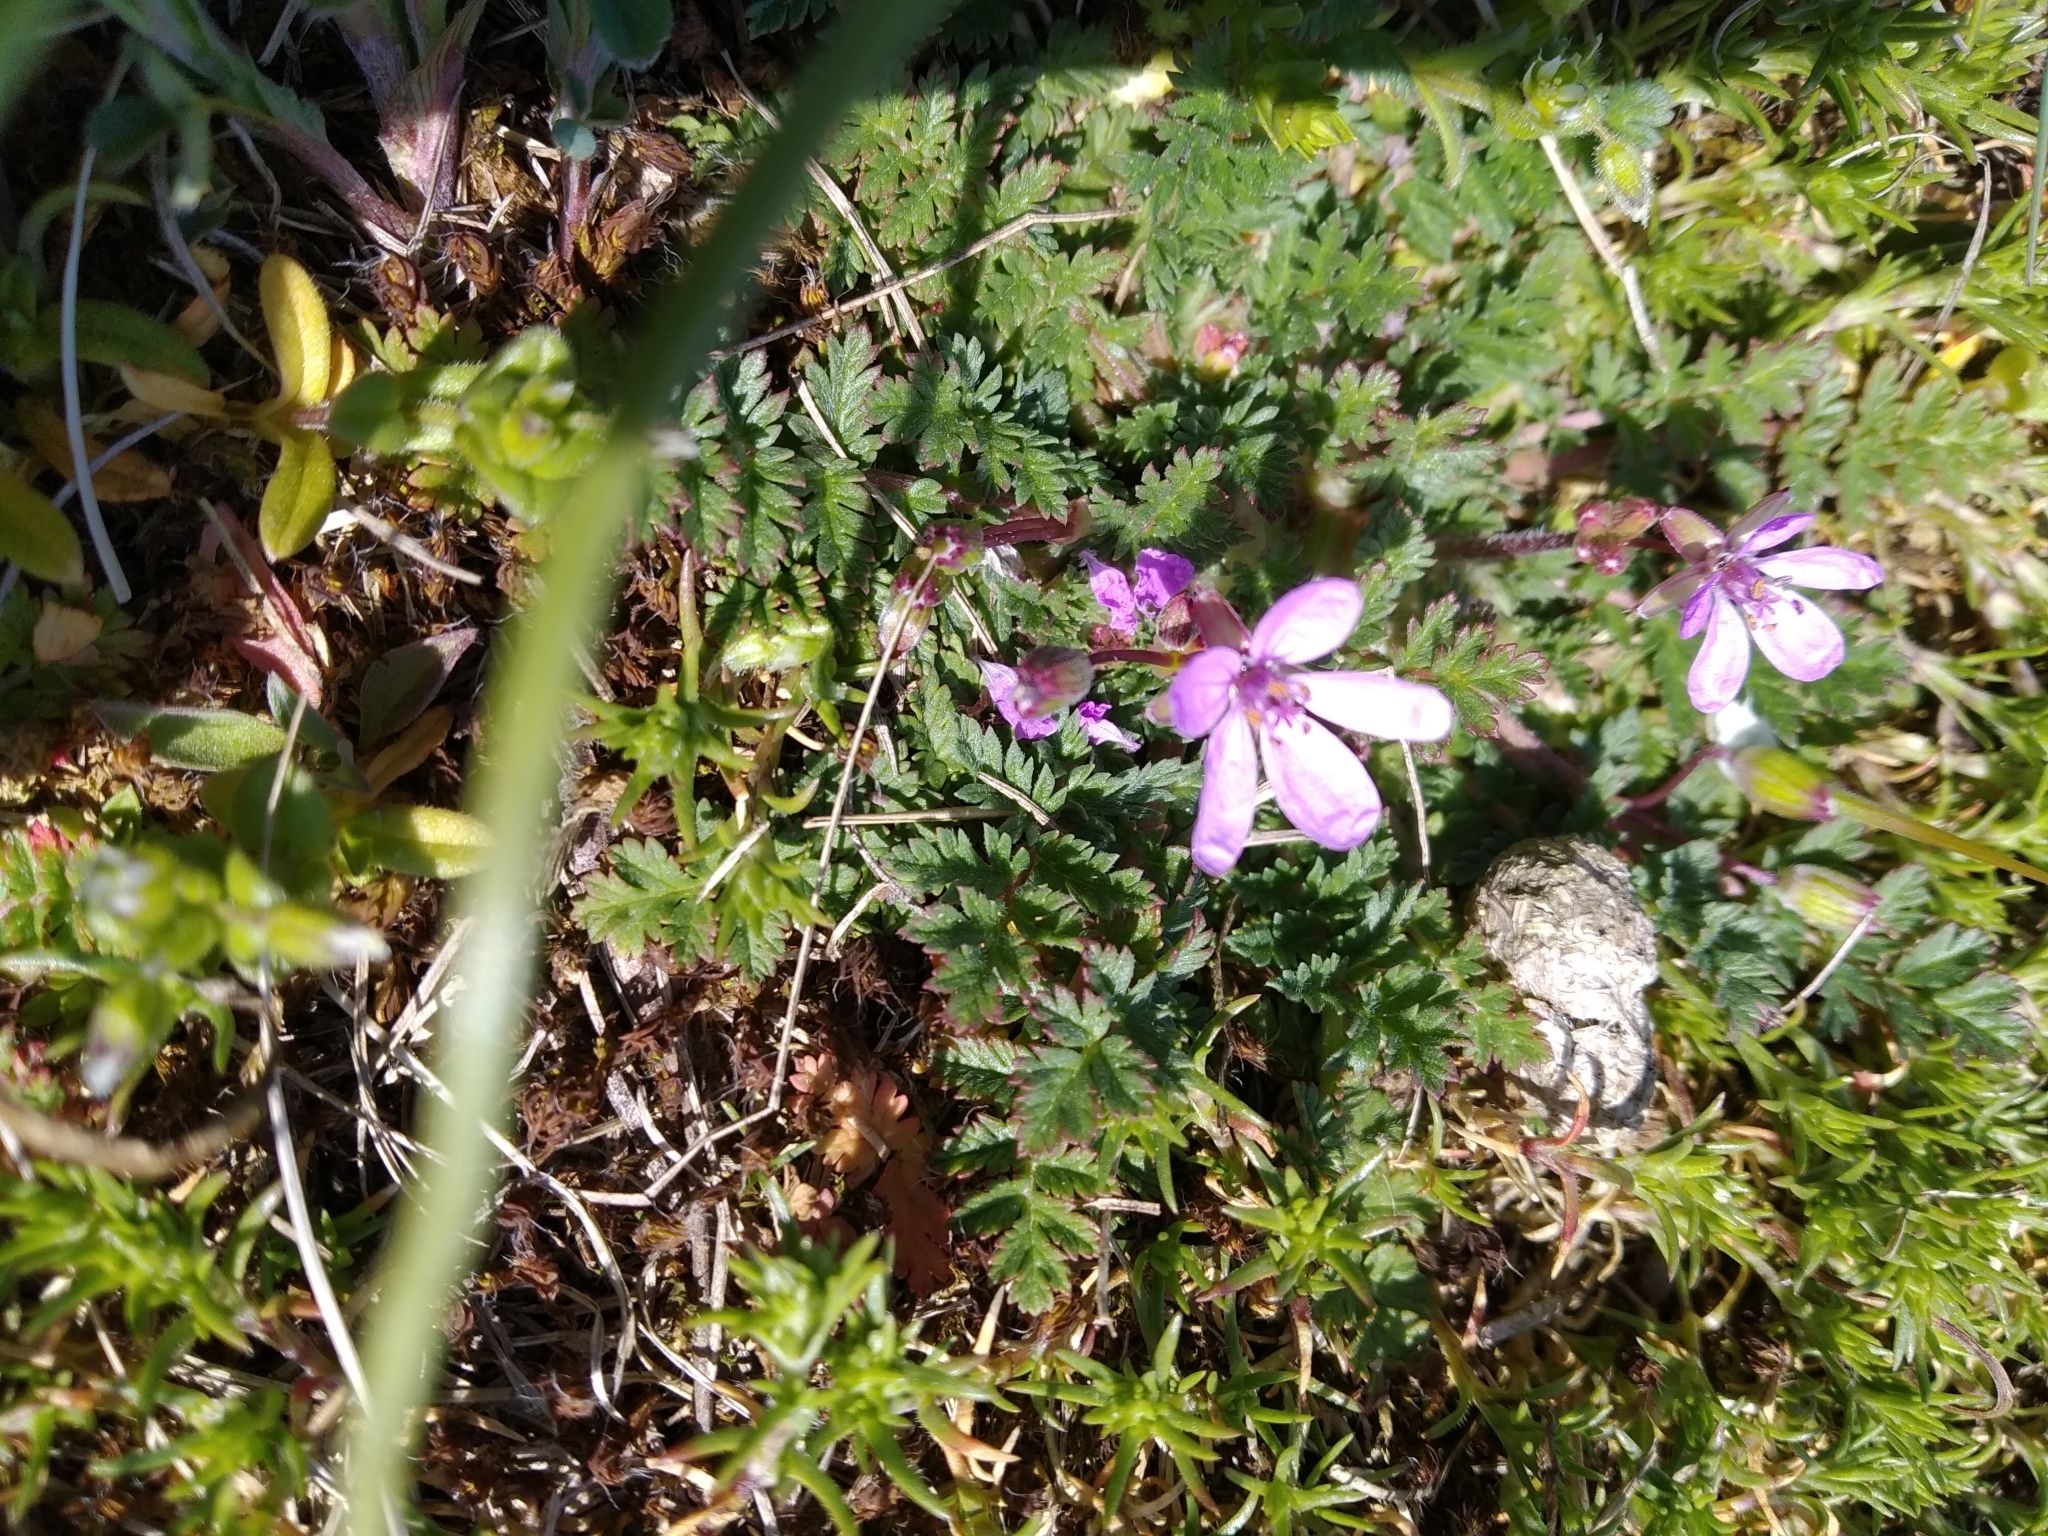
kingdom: Plantae
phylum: Tracheophyta
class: Magnoliopsida
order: Geraniales
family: Geraniaceae
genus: Erodium
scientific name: Erodium cicutarium
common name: Common stork's-bill
